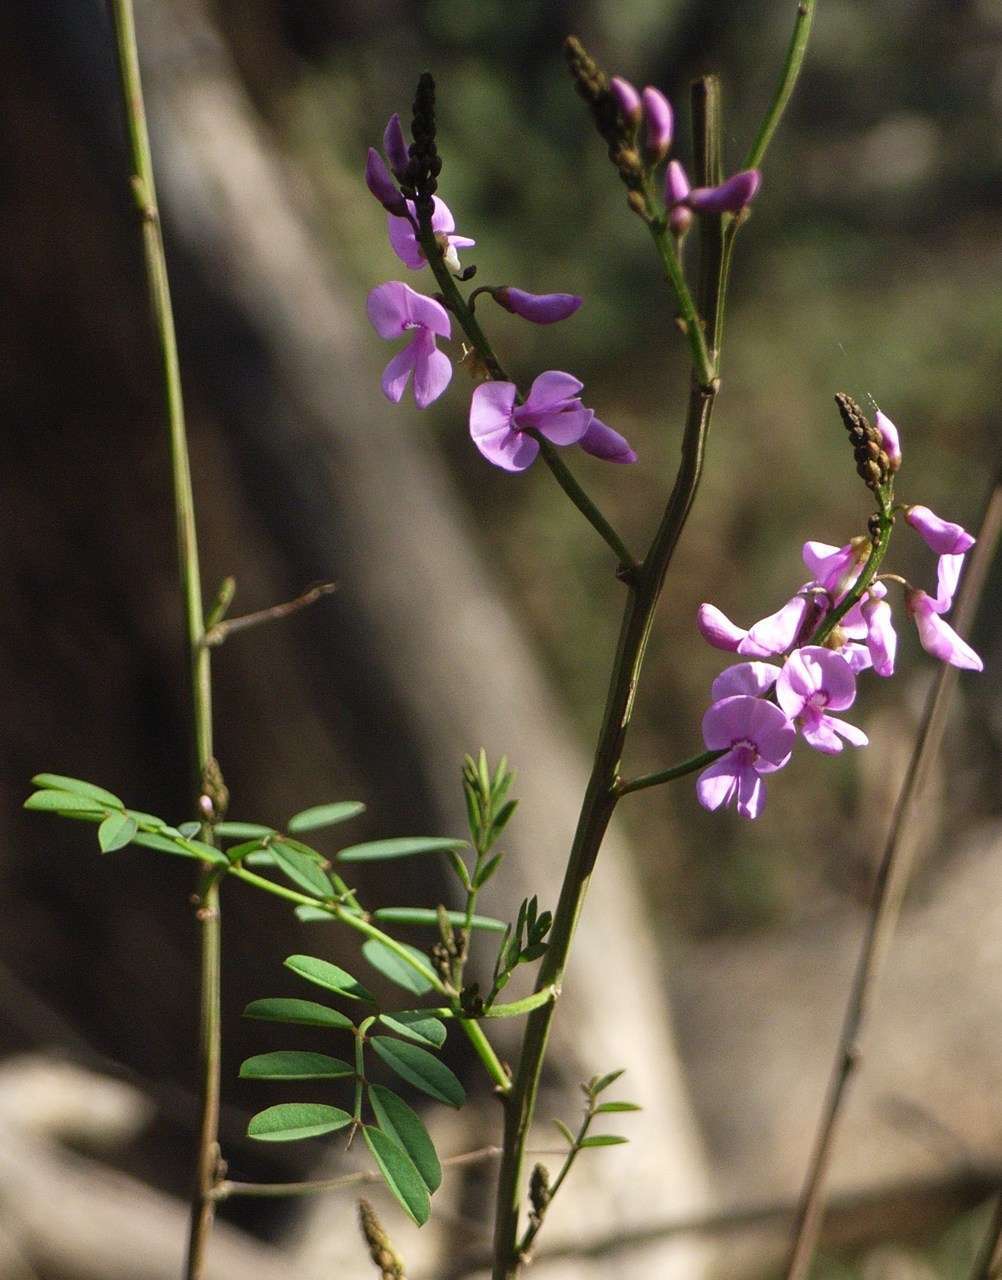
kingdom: Plantae
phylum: Tracheophyta
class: Magnoliopsida
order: Fabales
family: Fabaceae
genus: Indigofera
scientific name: Indigofera australis
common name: Australian indigo
